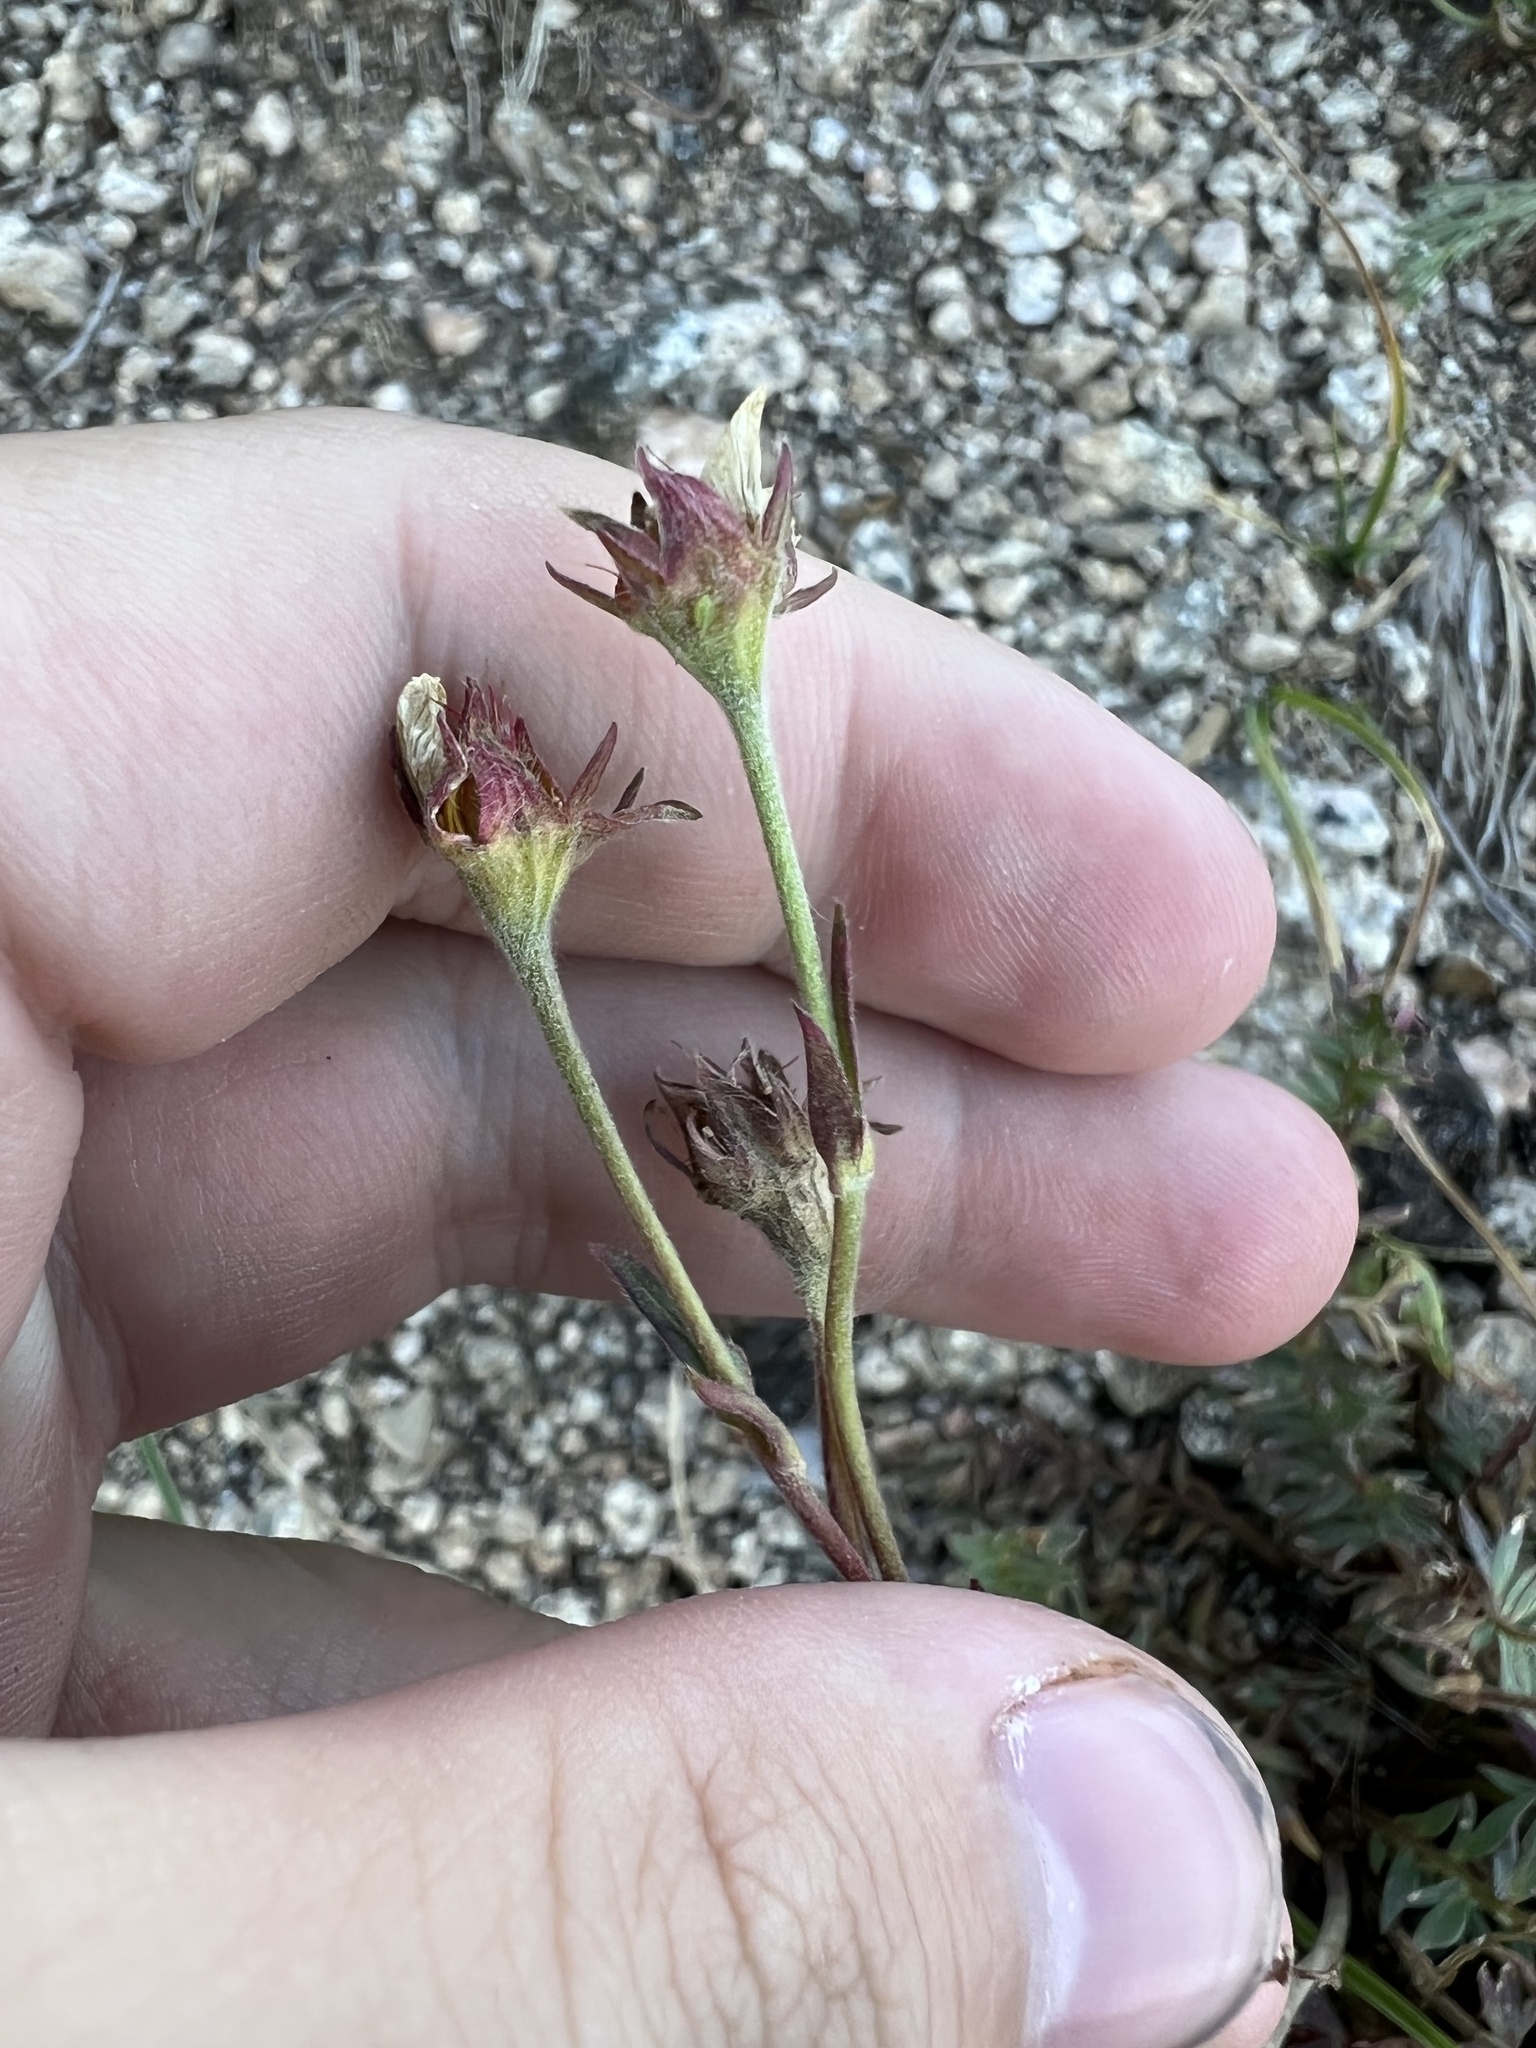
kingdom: Plantae
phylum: Tracheophyta
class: Magnoliopsida
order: Rosales
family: Rosaceae
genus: Geum
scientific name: Geum rossii
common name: Alpine avens
